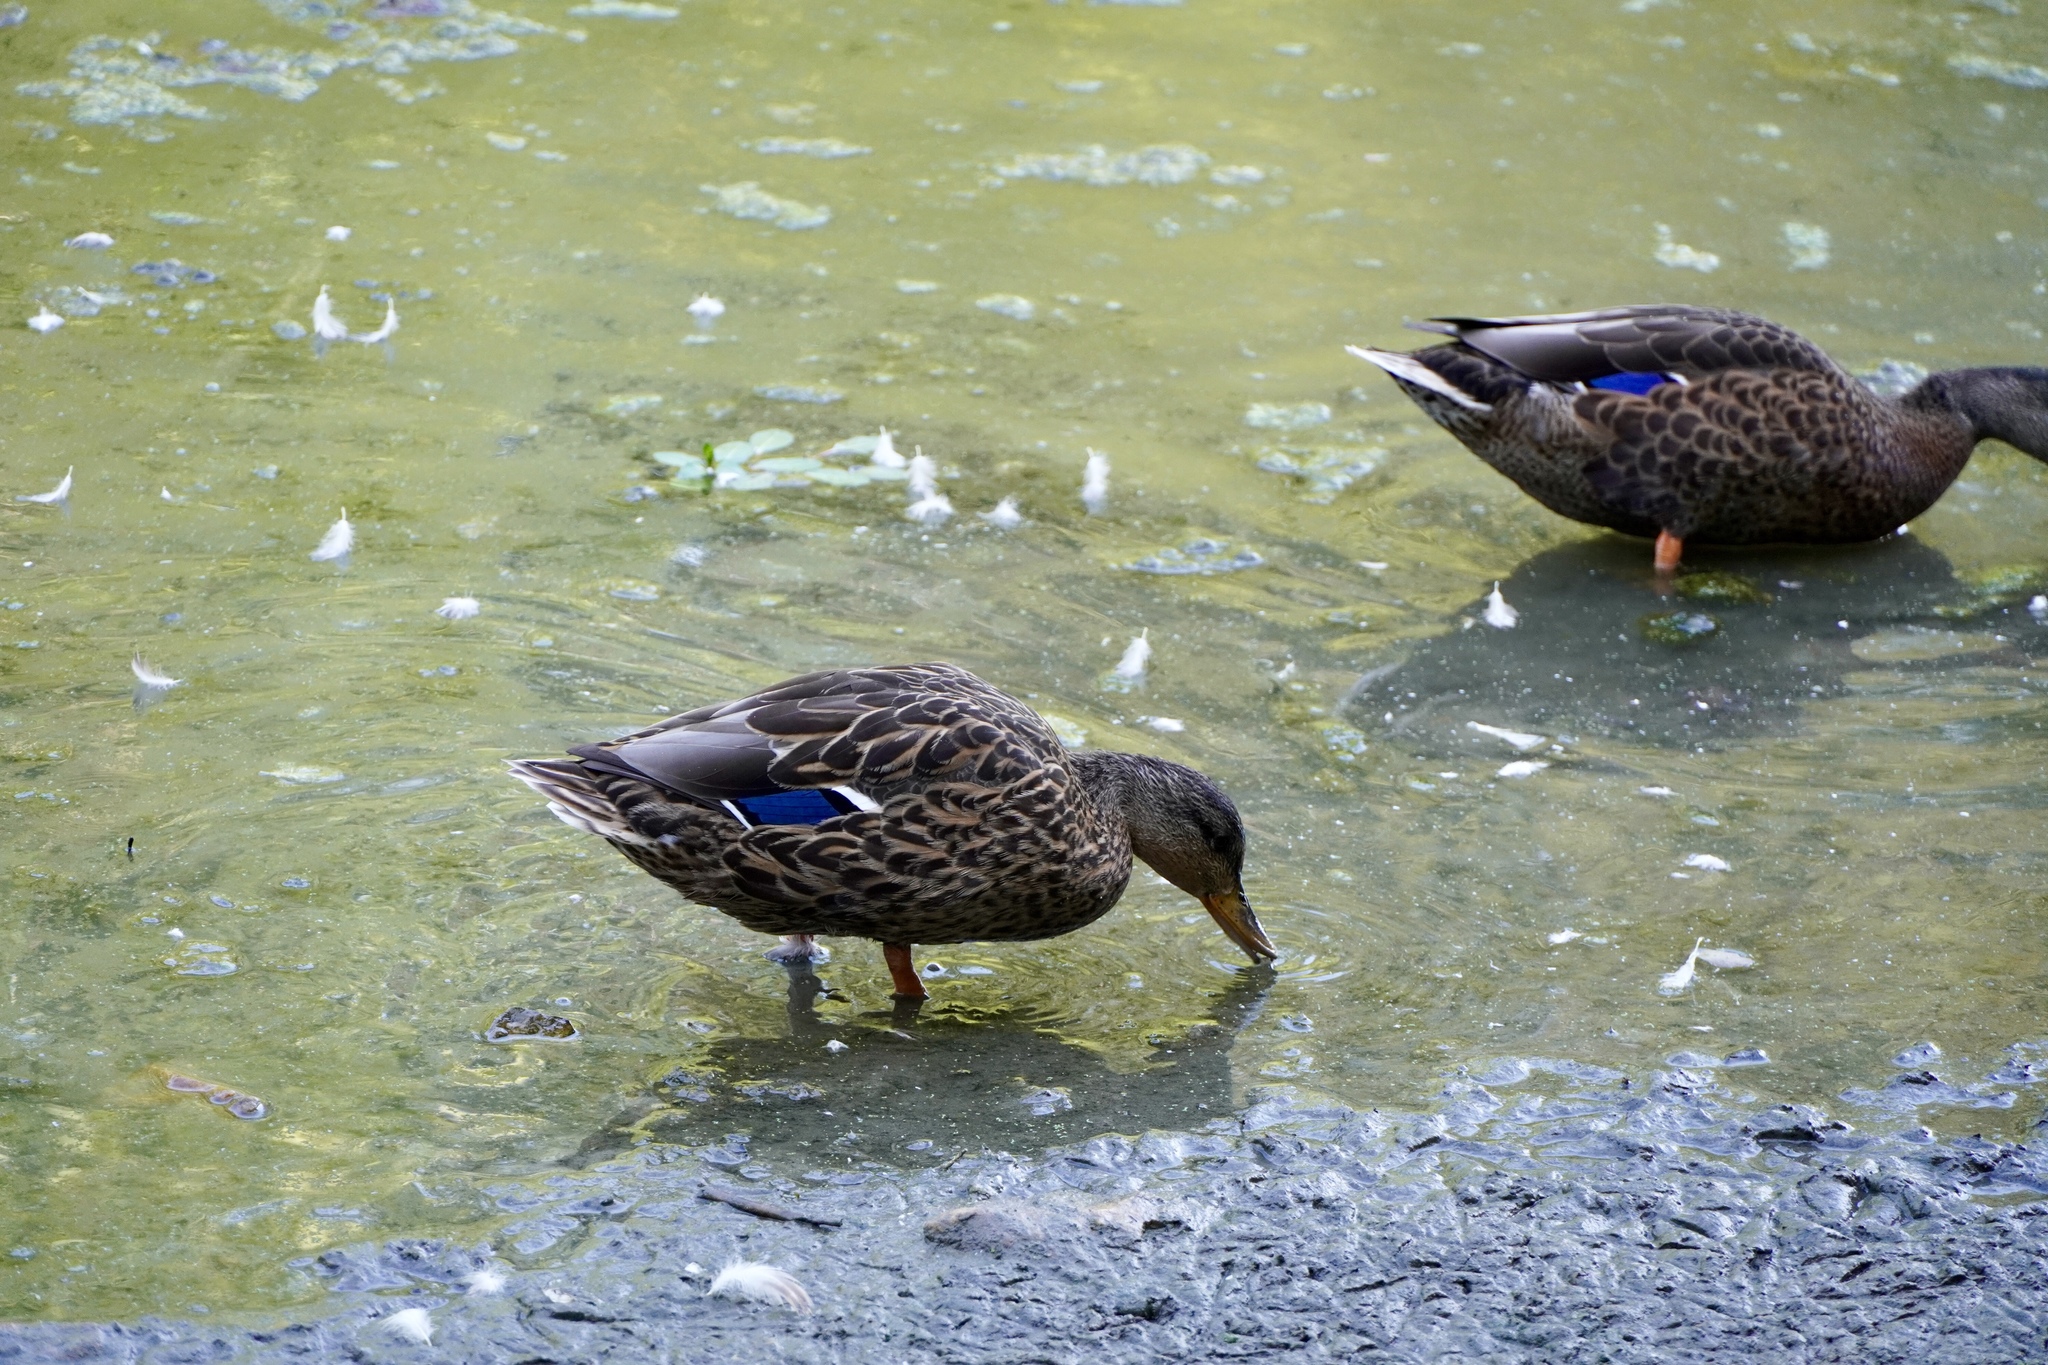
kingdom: Animalia
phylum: Chordata
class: Aves
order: Anseriformes
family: Anatidae
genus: Anas
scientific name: Anas platyrhynchos
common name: Mallard
